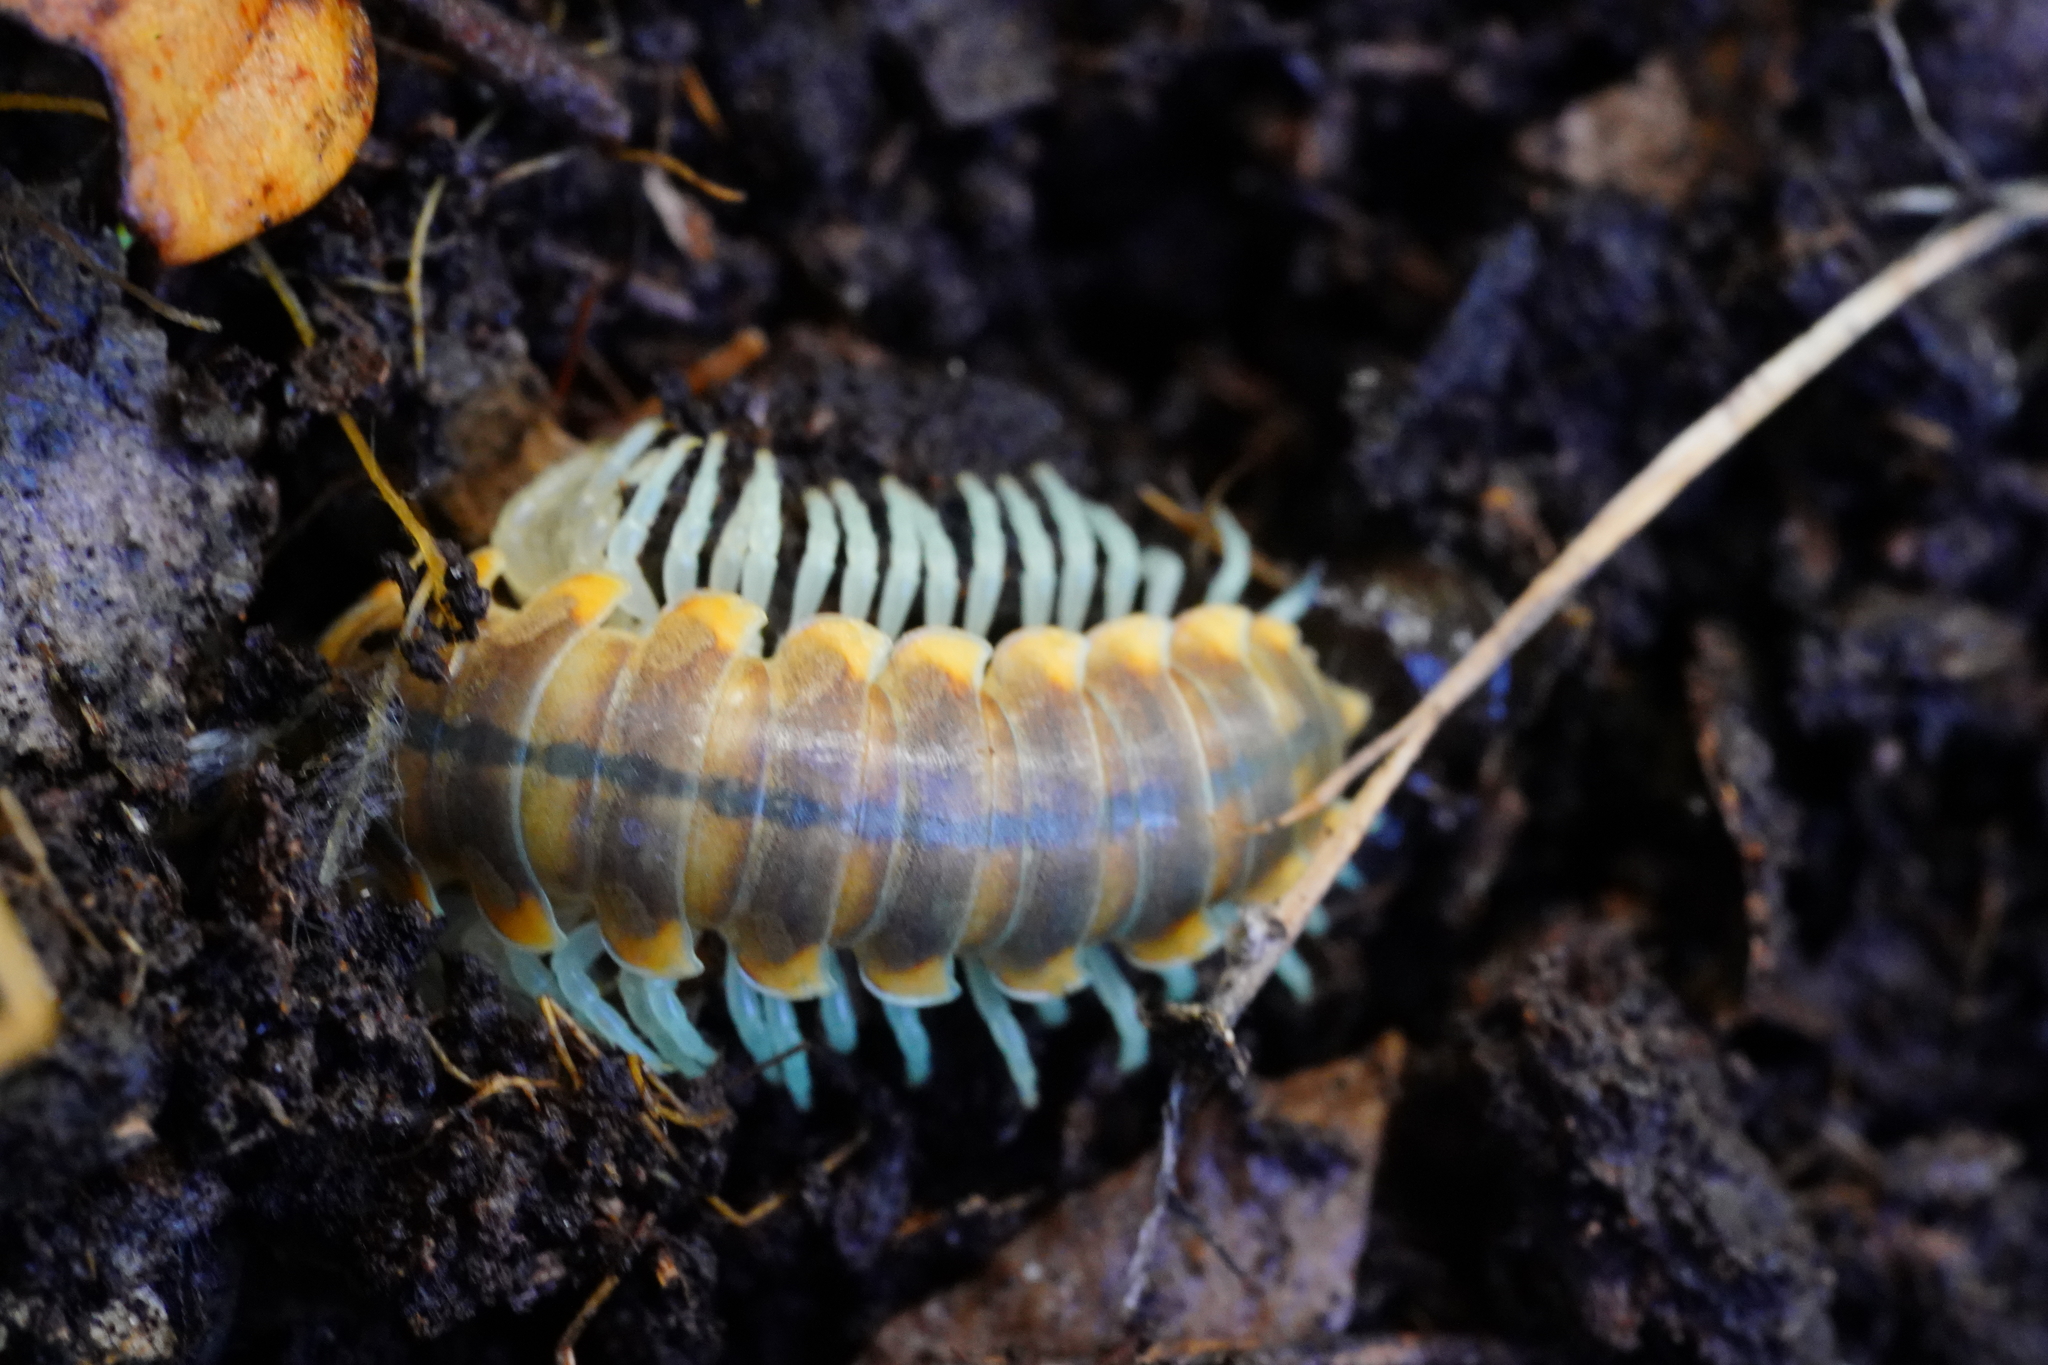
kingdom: Animalia
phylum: Arthropoda
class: Diplopoda
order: Polydesmida
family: Xystodesmidae
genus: Xystocheir
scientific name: Xystocheir dissecta
